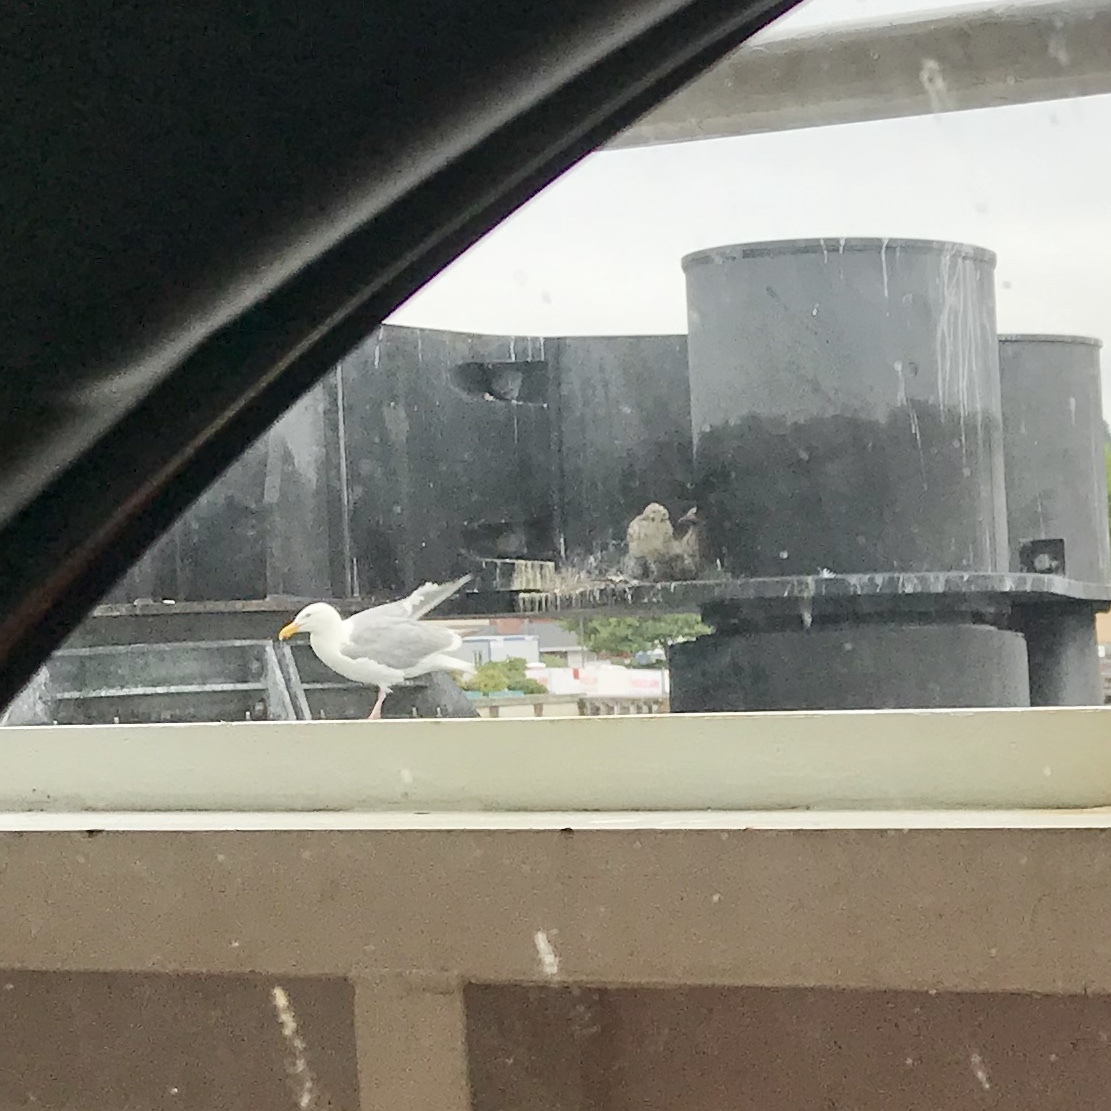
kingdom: Animalia
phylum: Chordata
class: Aves
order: Charadriiformes
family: Laridae
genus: Larus
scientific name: Larus glaucescens
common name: Glaucous-winged gull
